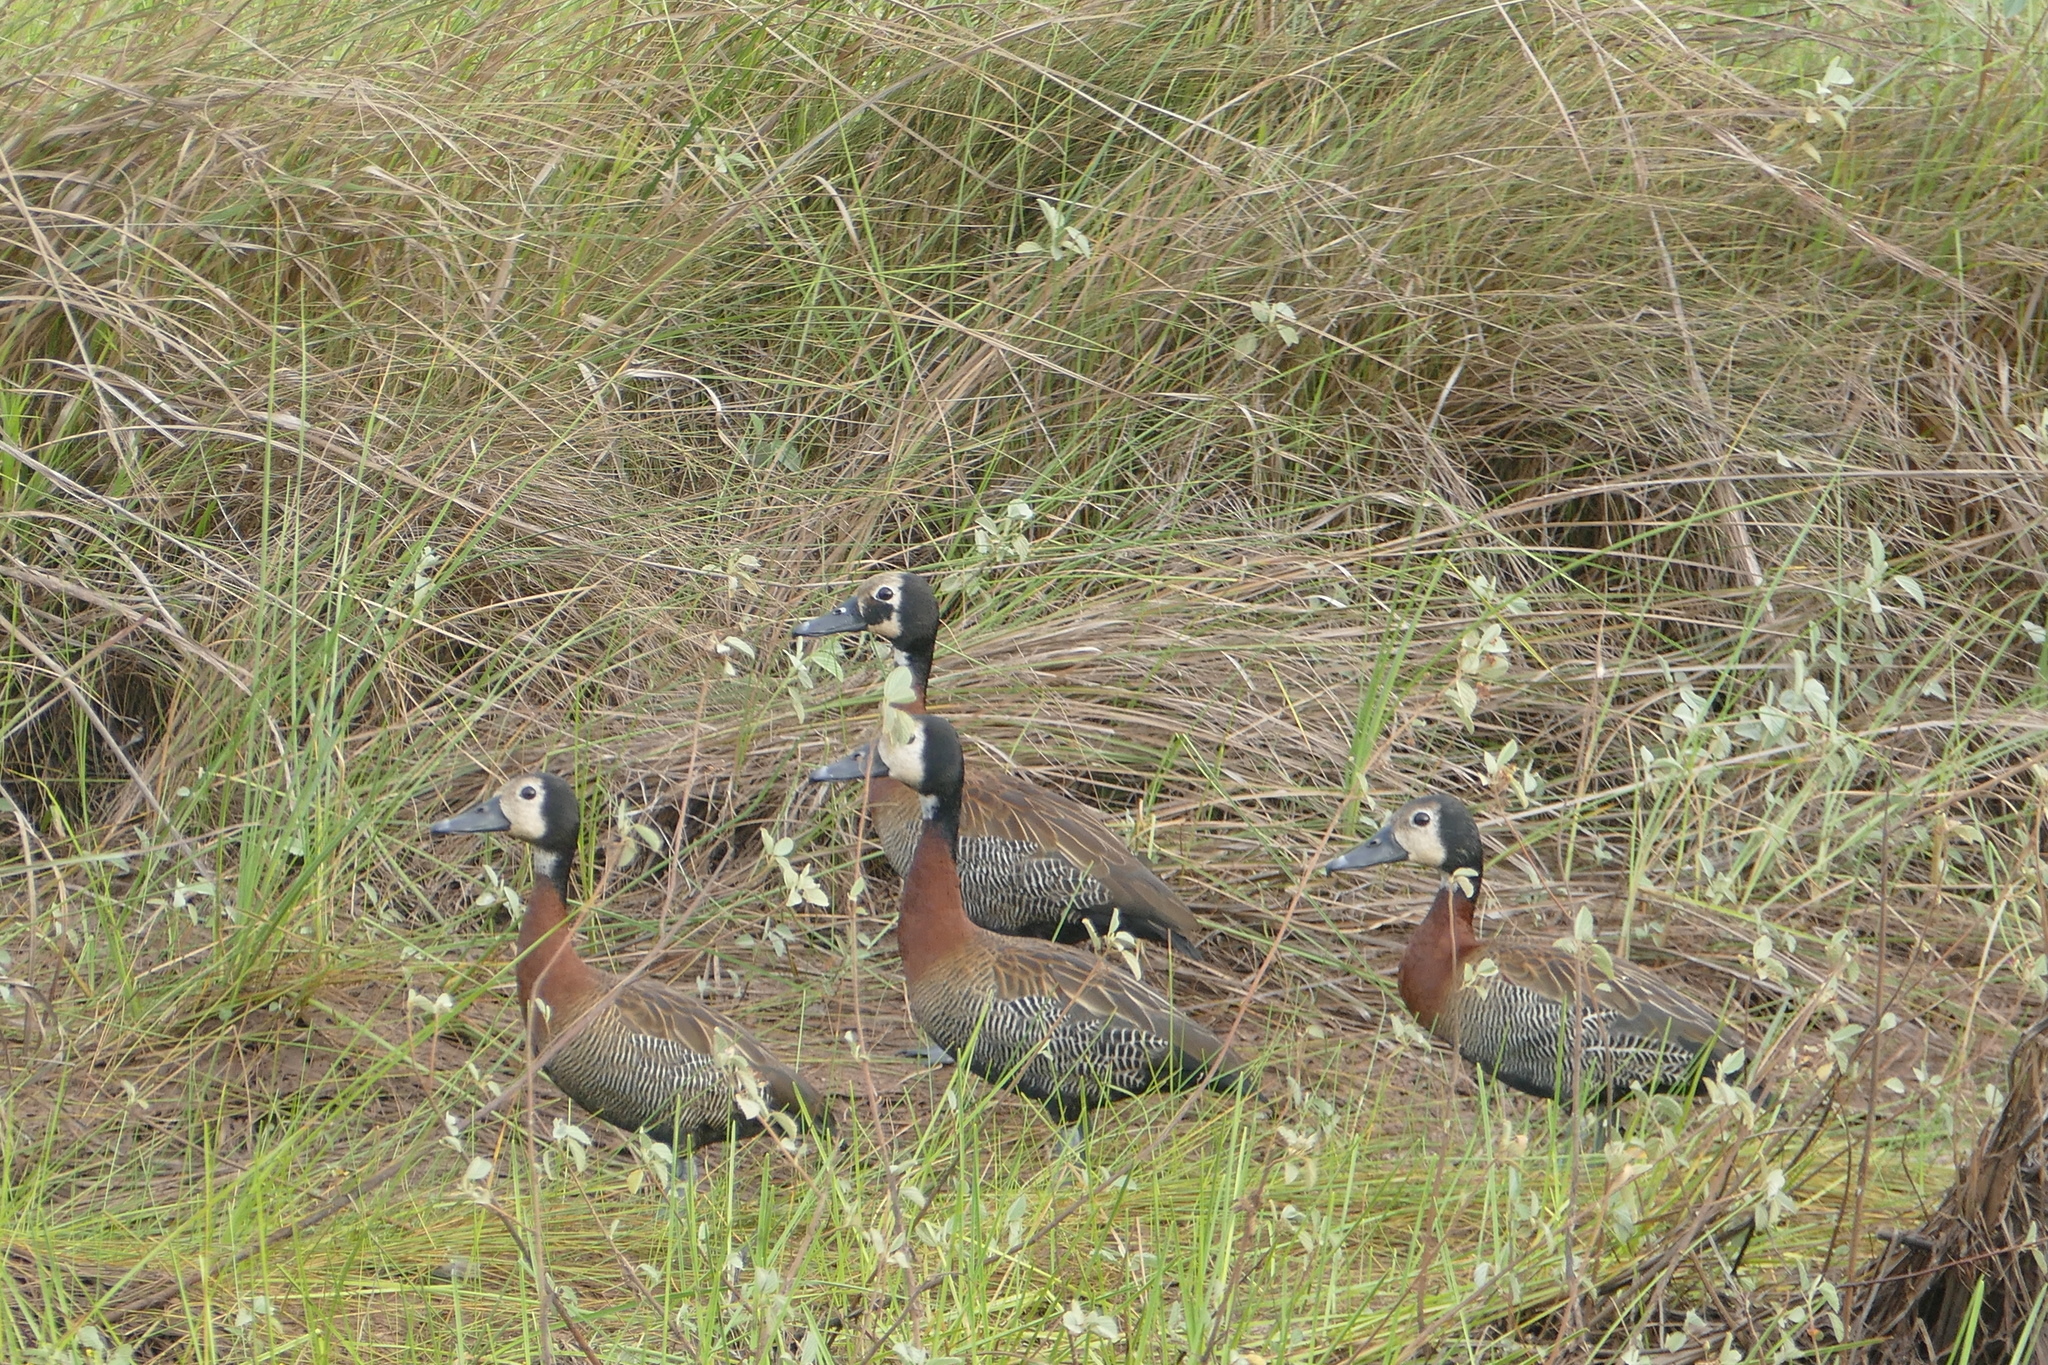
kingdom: Animalia
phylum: Chordata
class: Aves
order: Anseriformes
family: Anatidae
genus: Dendrocygna
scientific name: Dendrocygna viduata
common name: White-faced whistling duck
